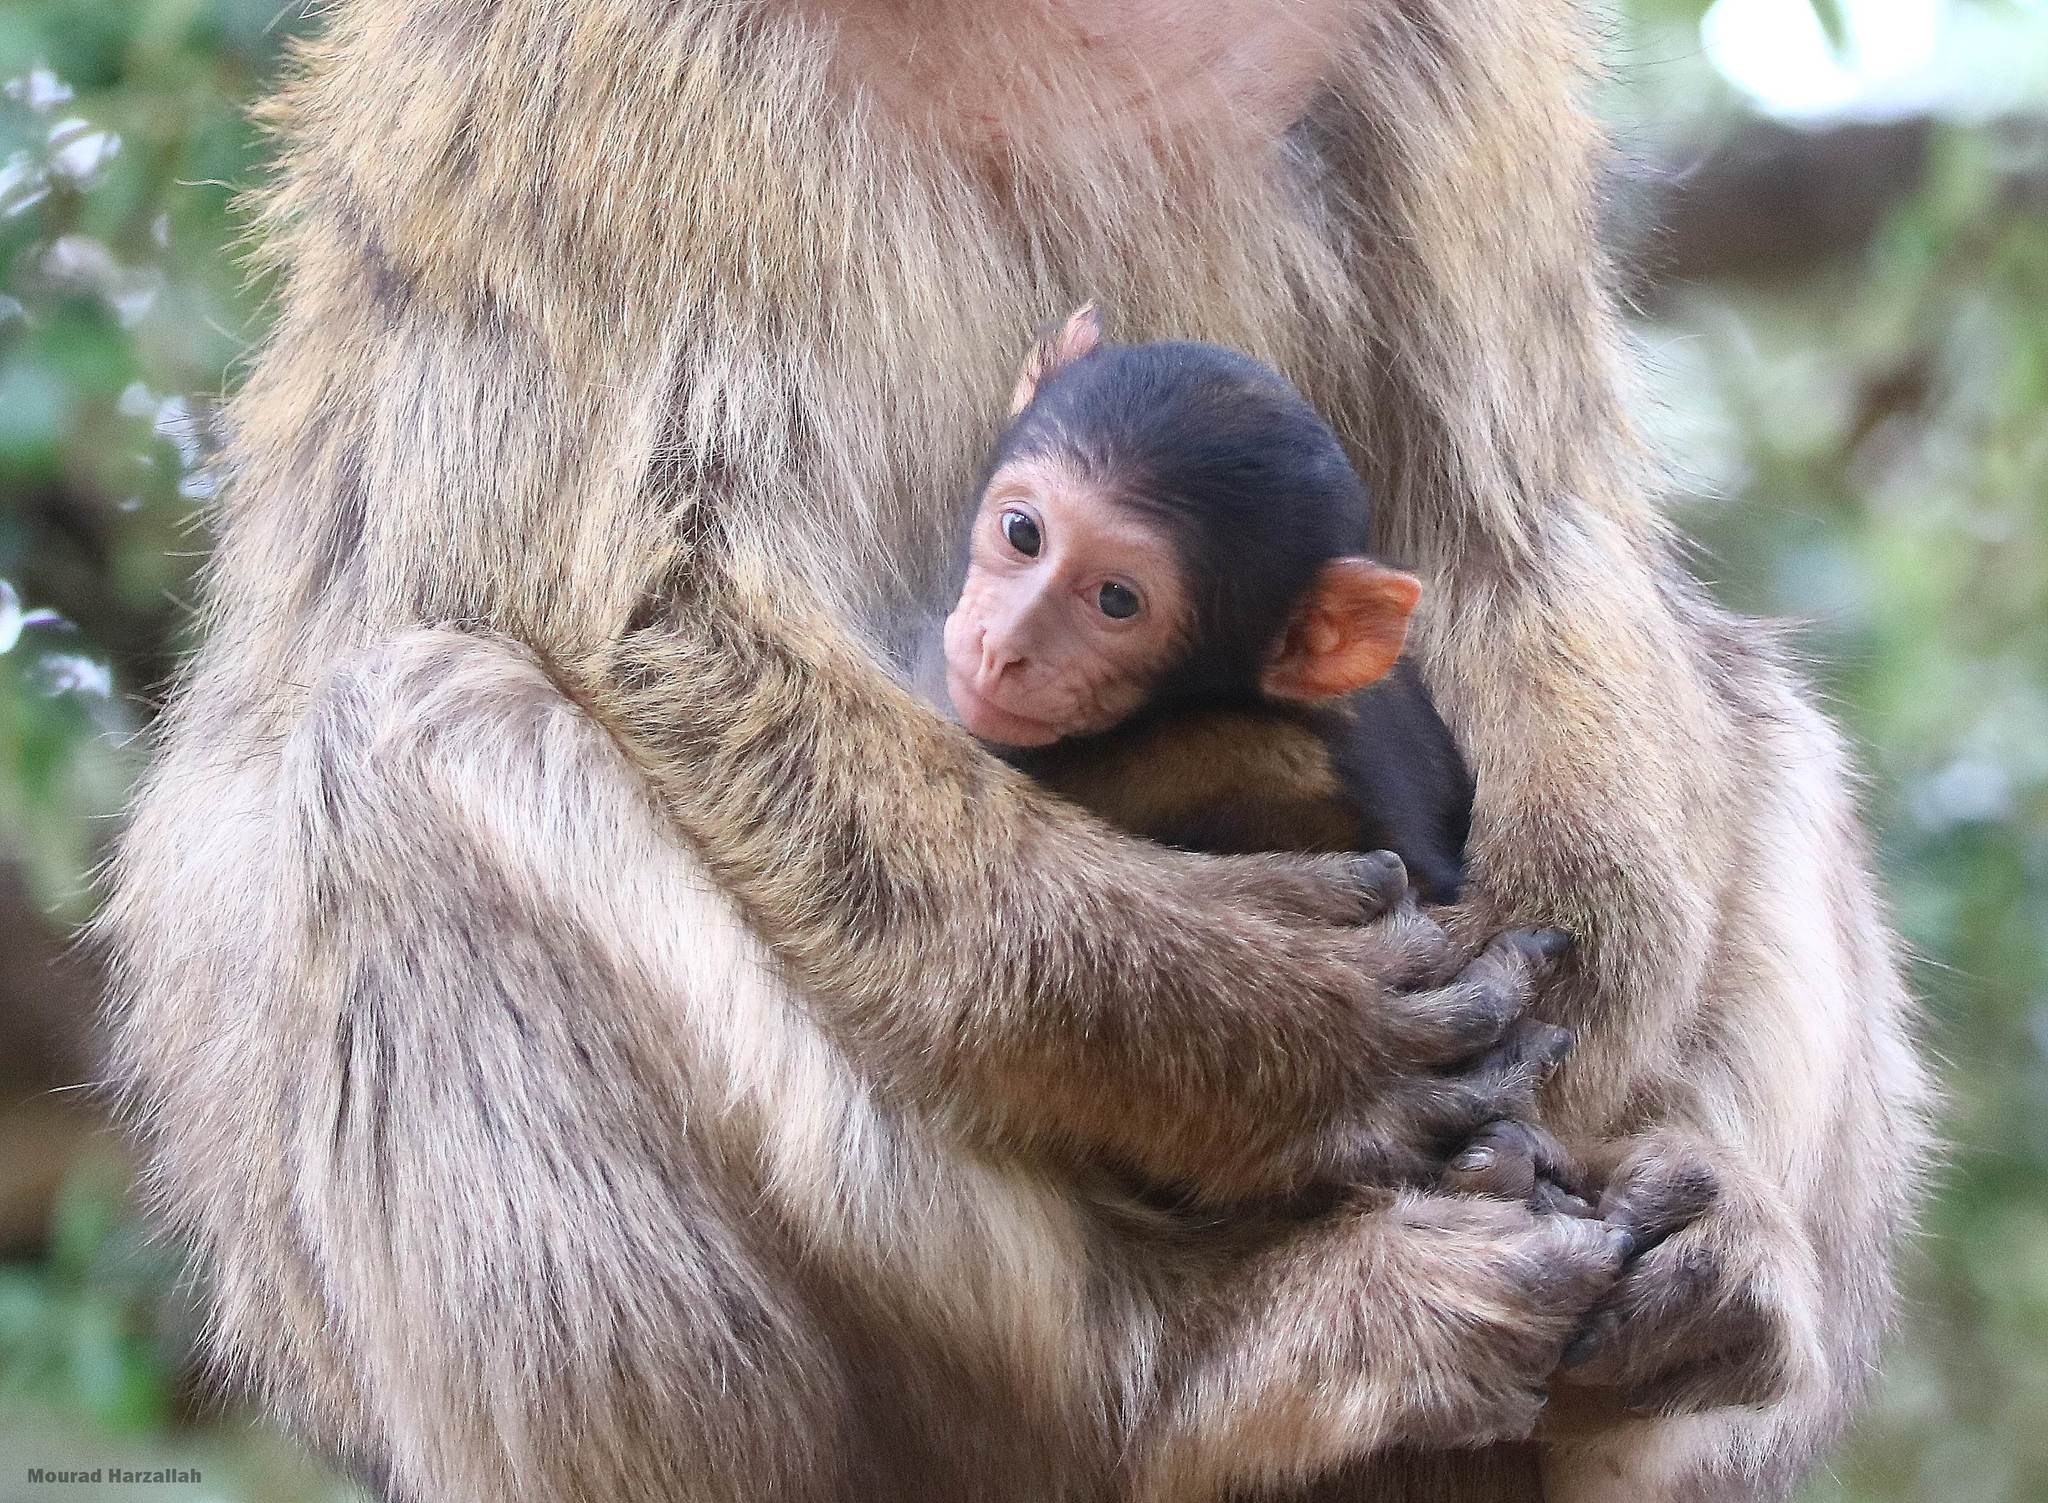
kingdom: Animalia
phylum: Chordata
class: Mammalia
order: Primates
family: Cercopithecidae
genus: Macaca
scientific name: Macaca sylvanus
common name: Barbary macaque
